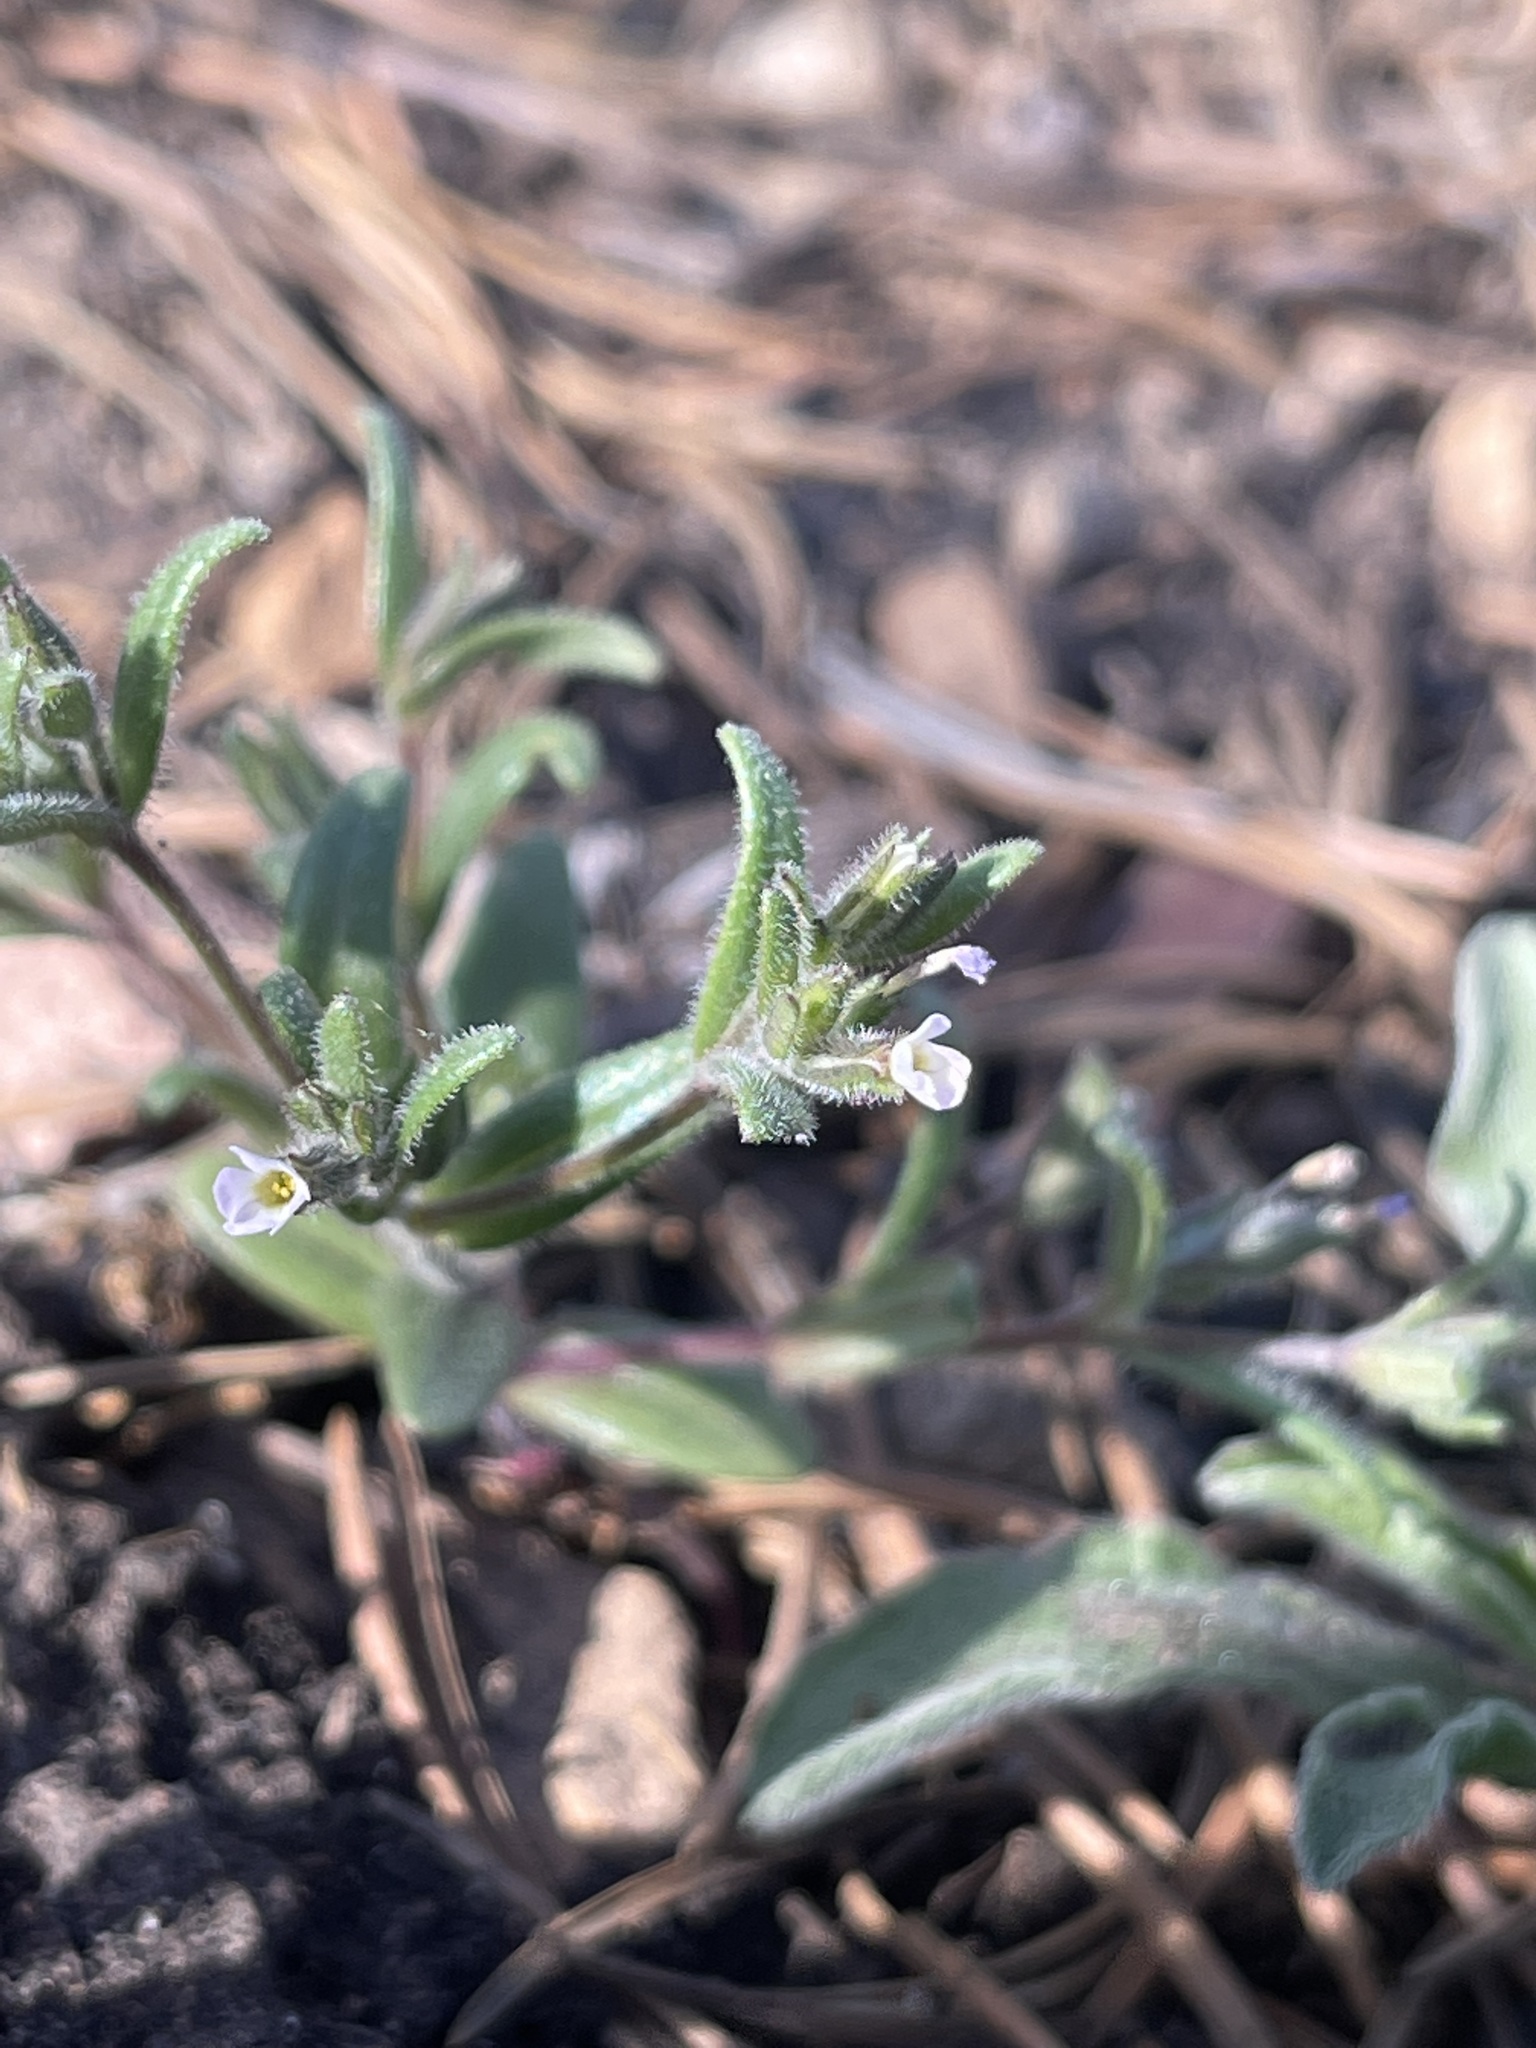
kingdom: Plantae
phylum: Tracheophyta
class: Magnoliopsida
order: Ericales
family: Polemoniaceae
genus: Phlox
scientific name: Phlox gracilis
